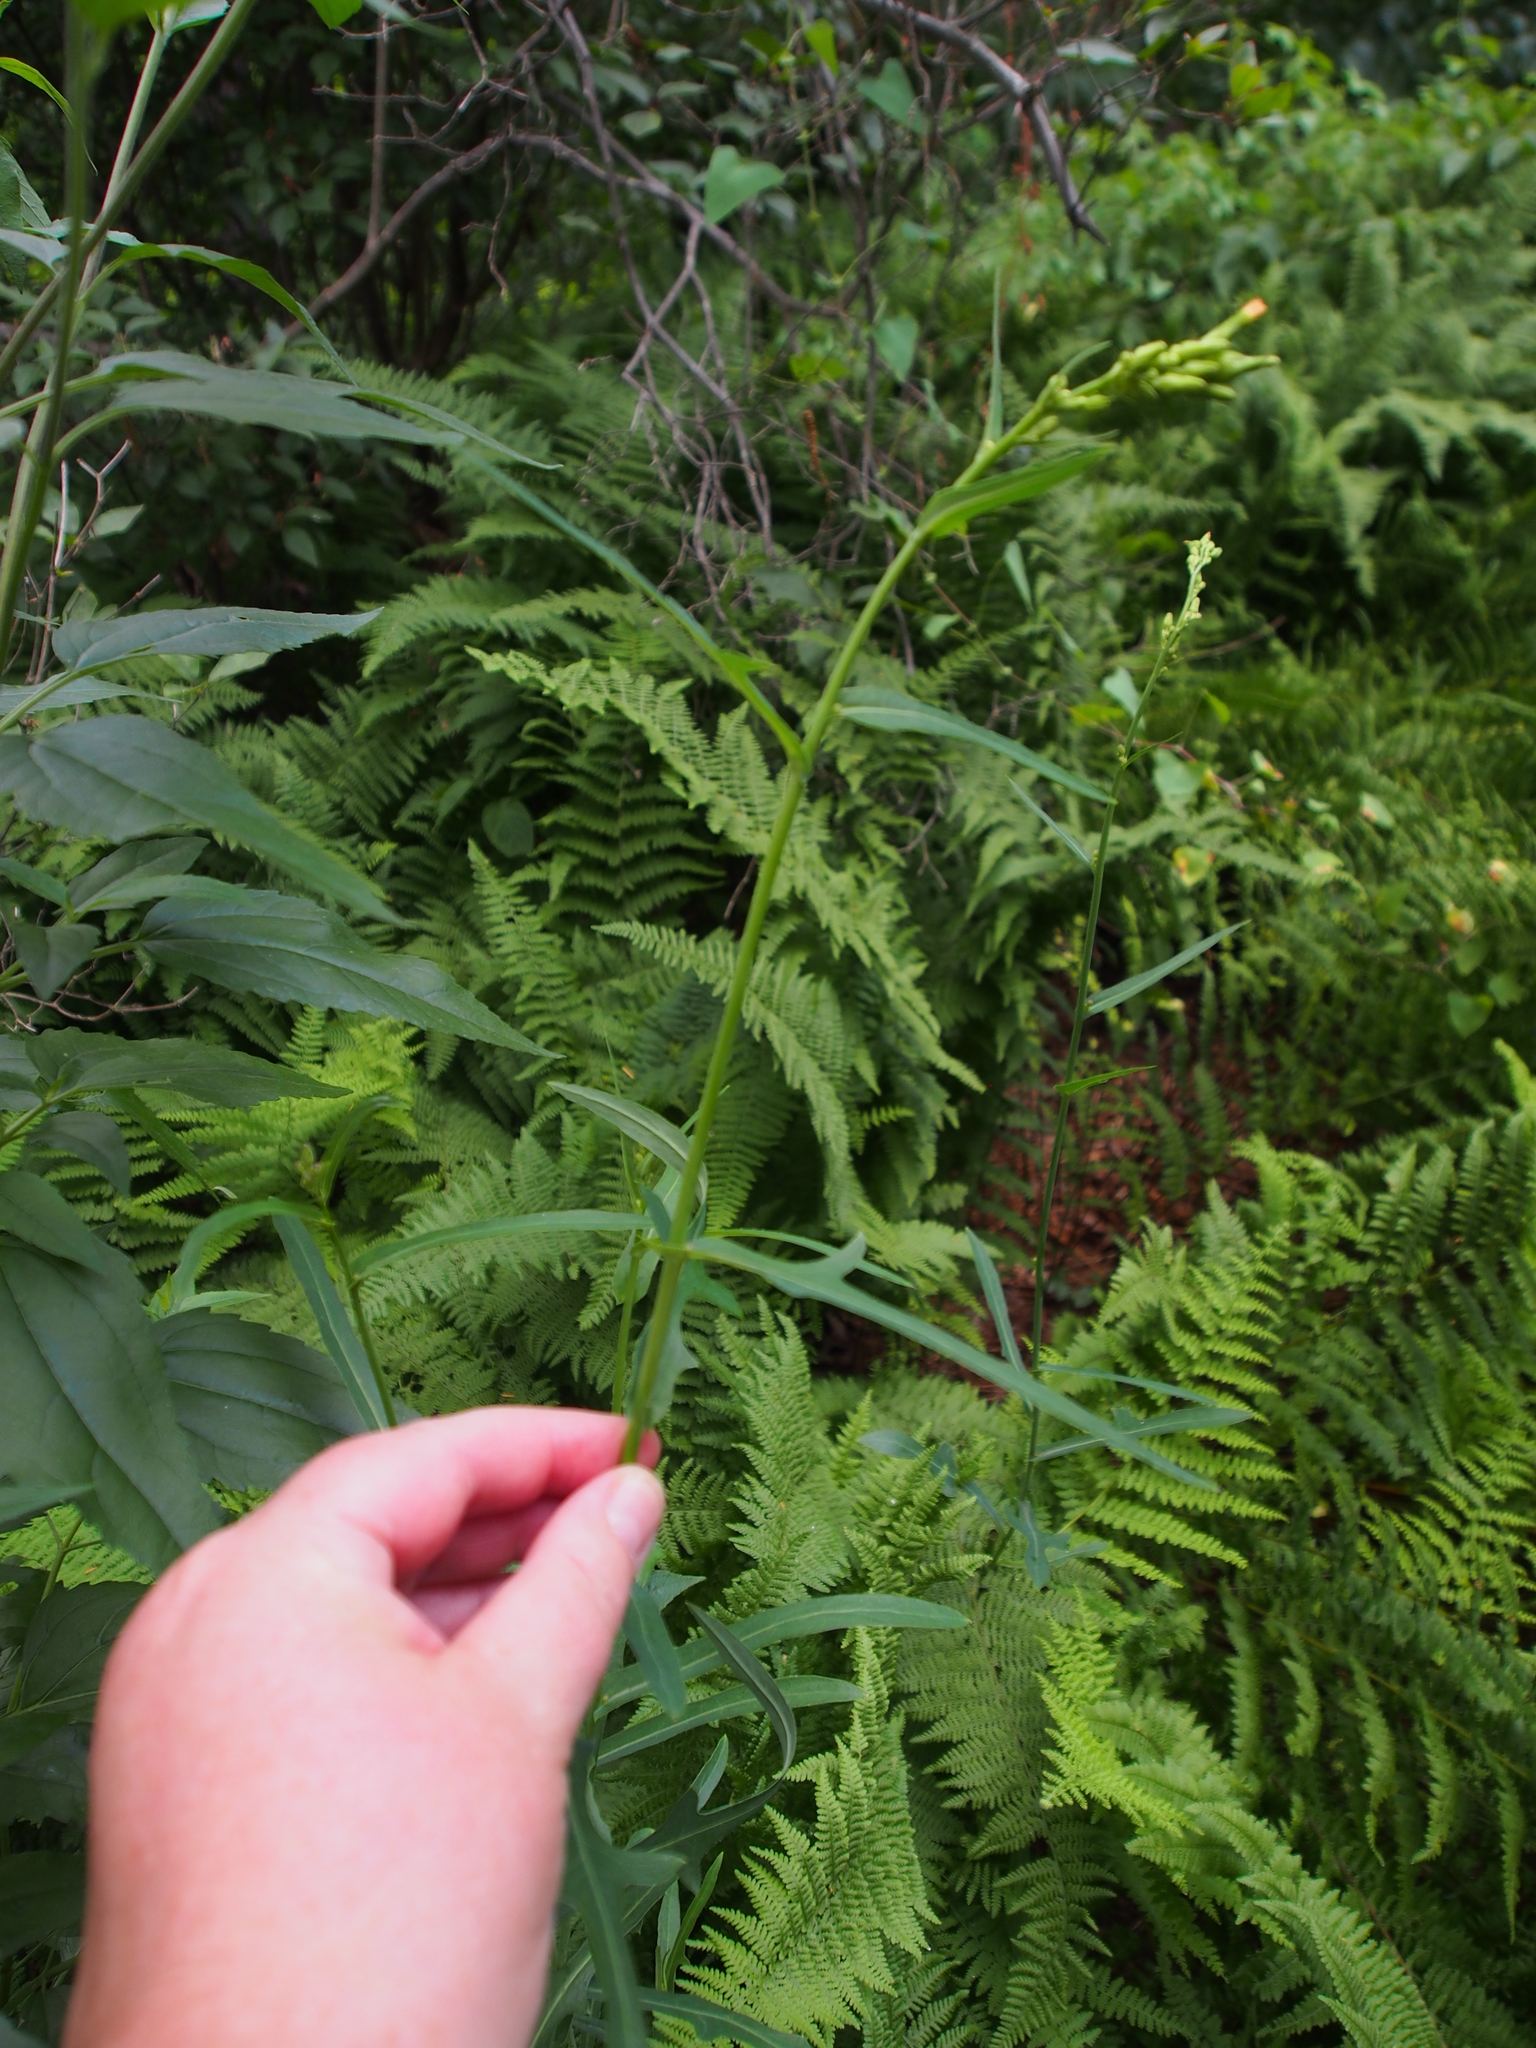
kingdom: Plantae
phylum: Tracheophyta
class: Magnoliopsida
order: Asterales
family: Asteraceae
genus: Lactuca
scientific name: Lactuca canadensis
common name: Canada lettuce
